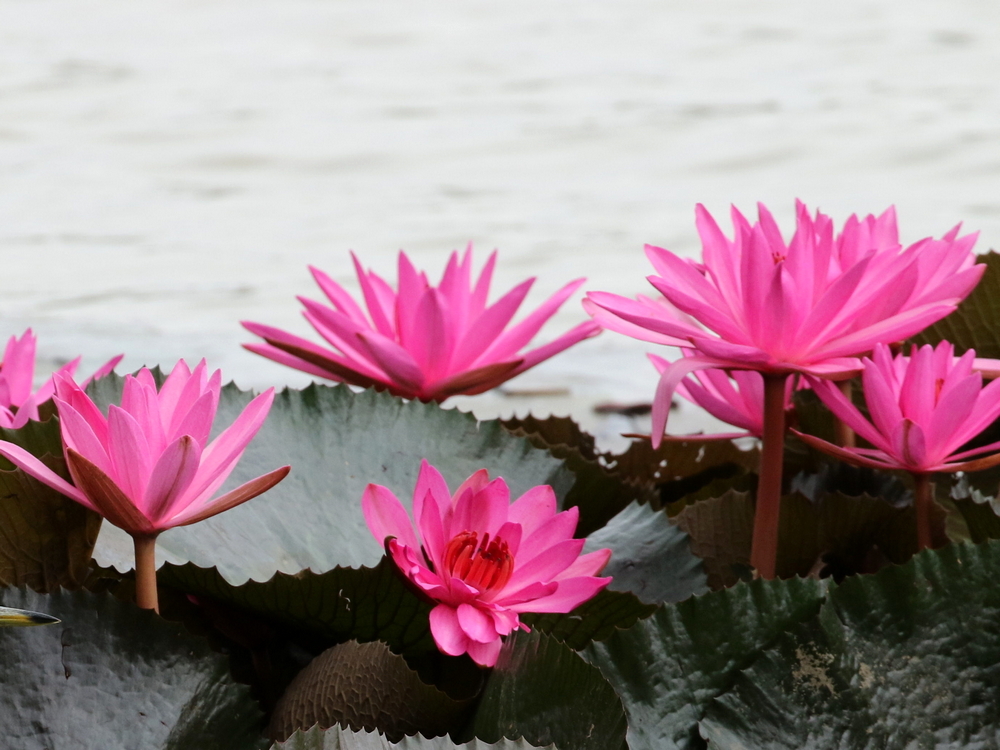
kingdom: Plantae
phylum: Tracheophyta
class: Magnoliopsida
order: Nymphaeales
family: Nymphaeaceae
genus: Nymphaea
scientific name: Nymphaea pubescens
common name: Hairy water lily
